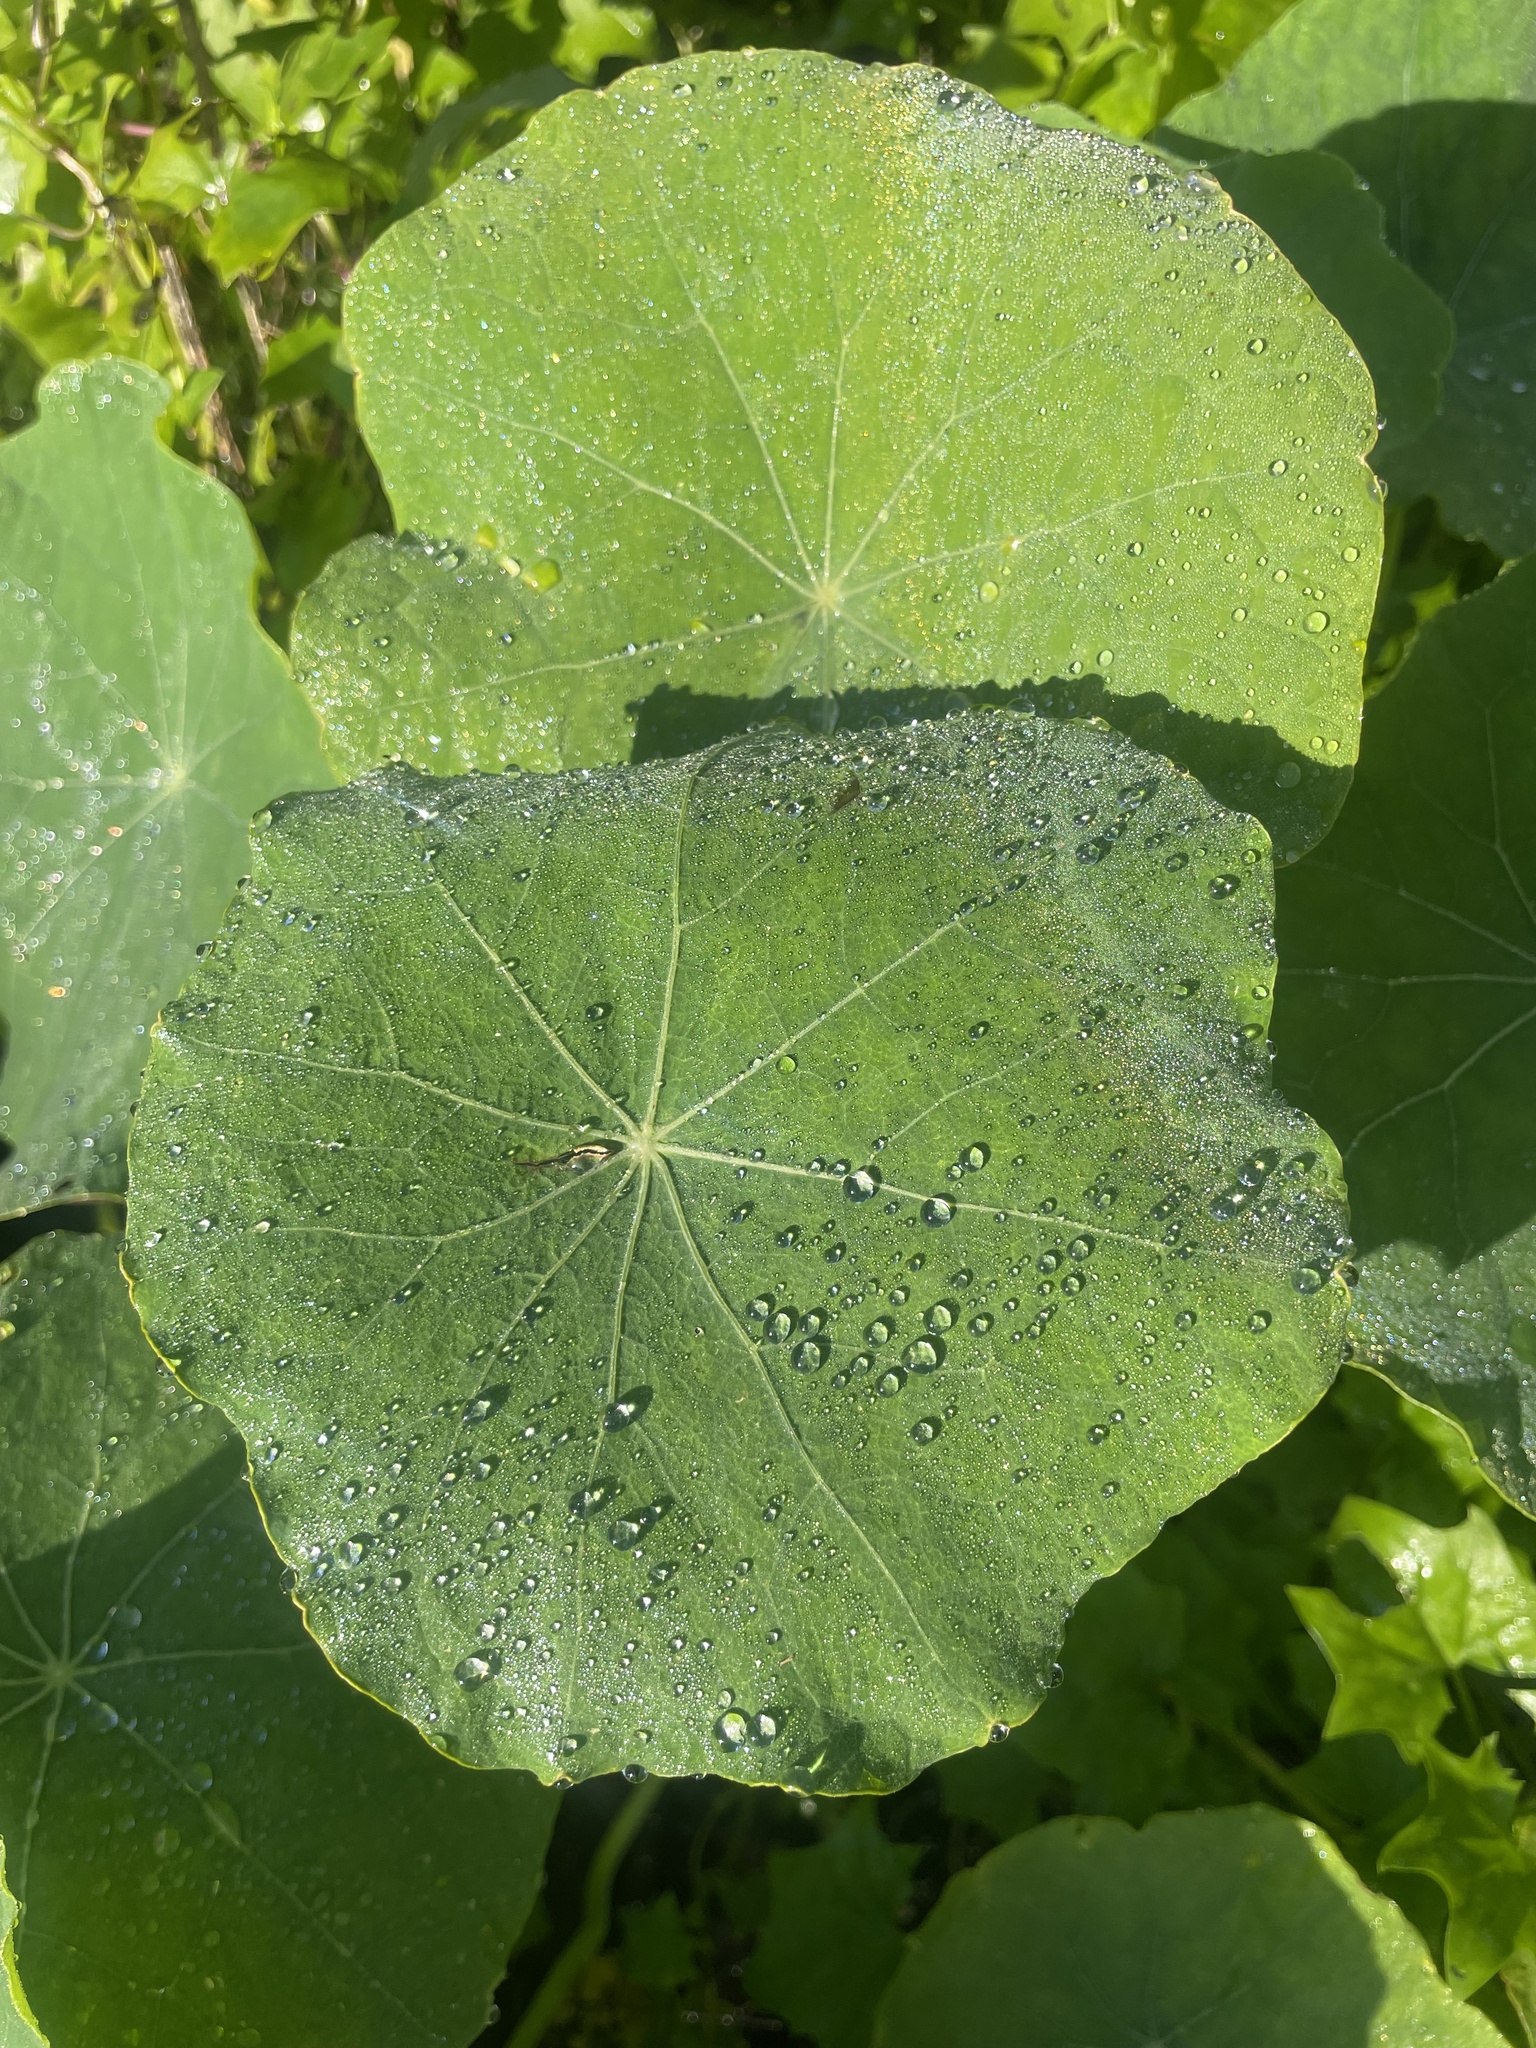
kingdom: Plantae
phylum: Tracheophyta
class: Magnoliopsida
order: Brassicales
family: Tropaeolaceae
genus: Tropaeolum
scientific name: Tropaeolum majus
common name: Nasturtium
